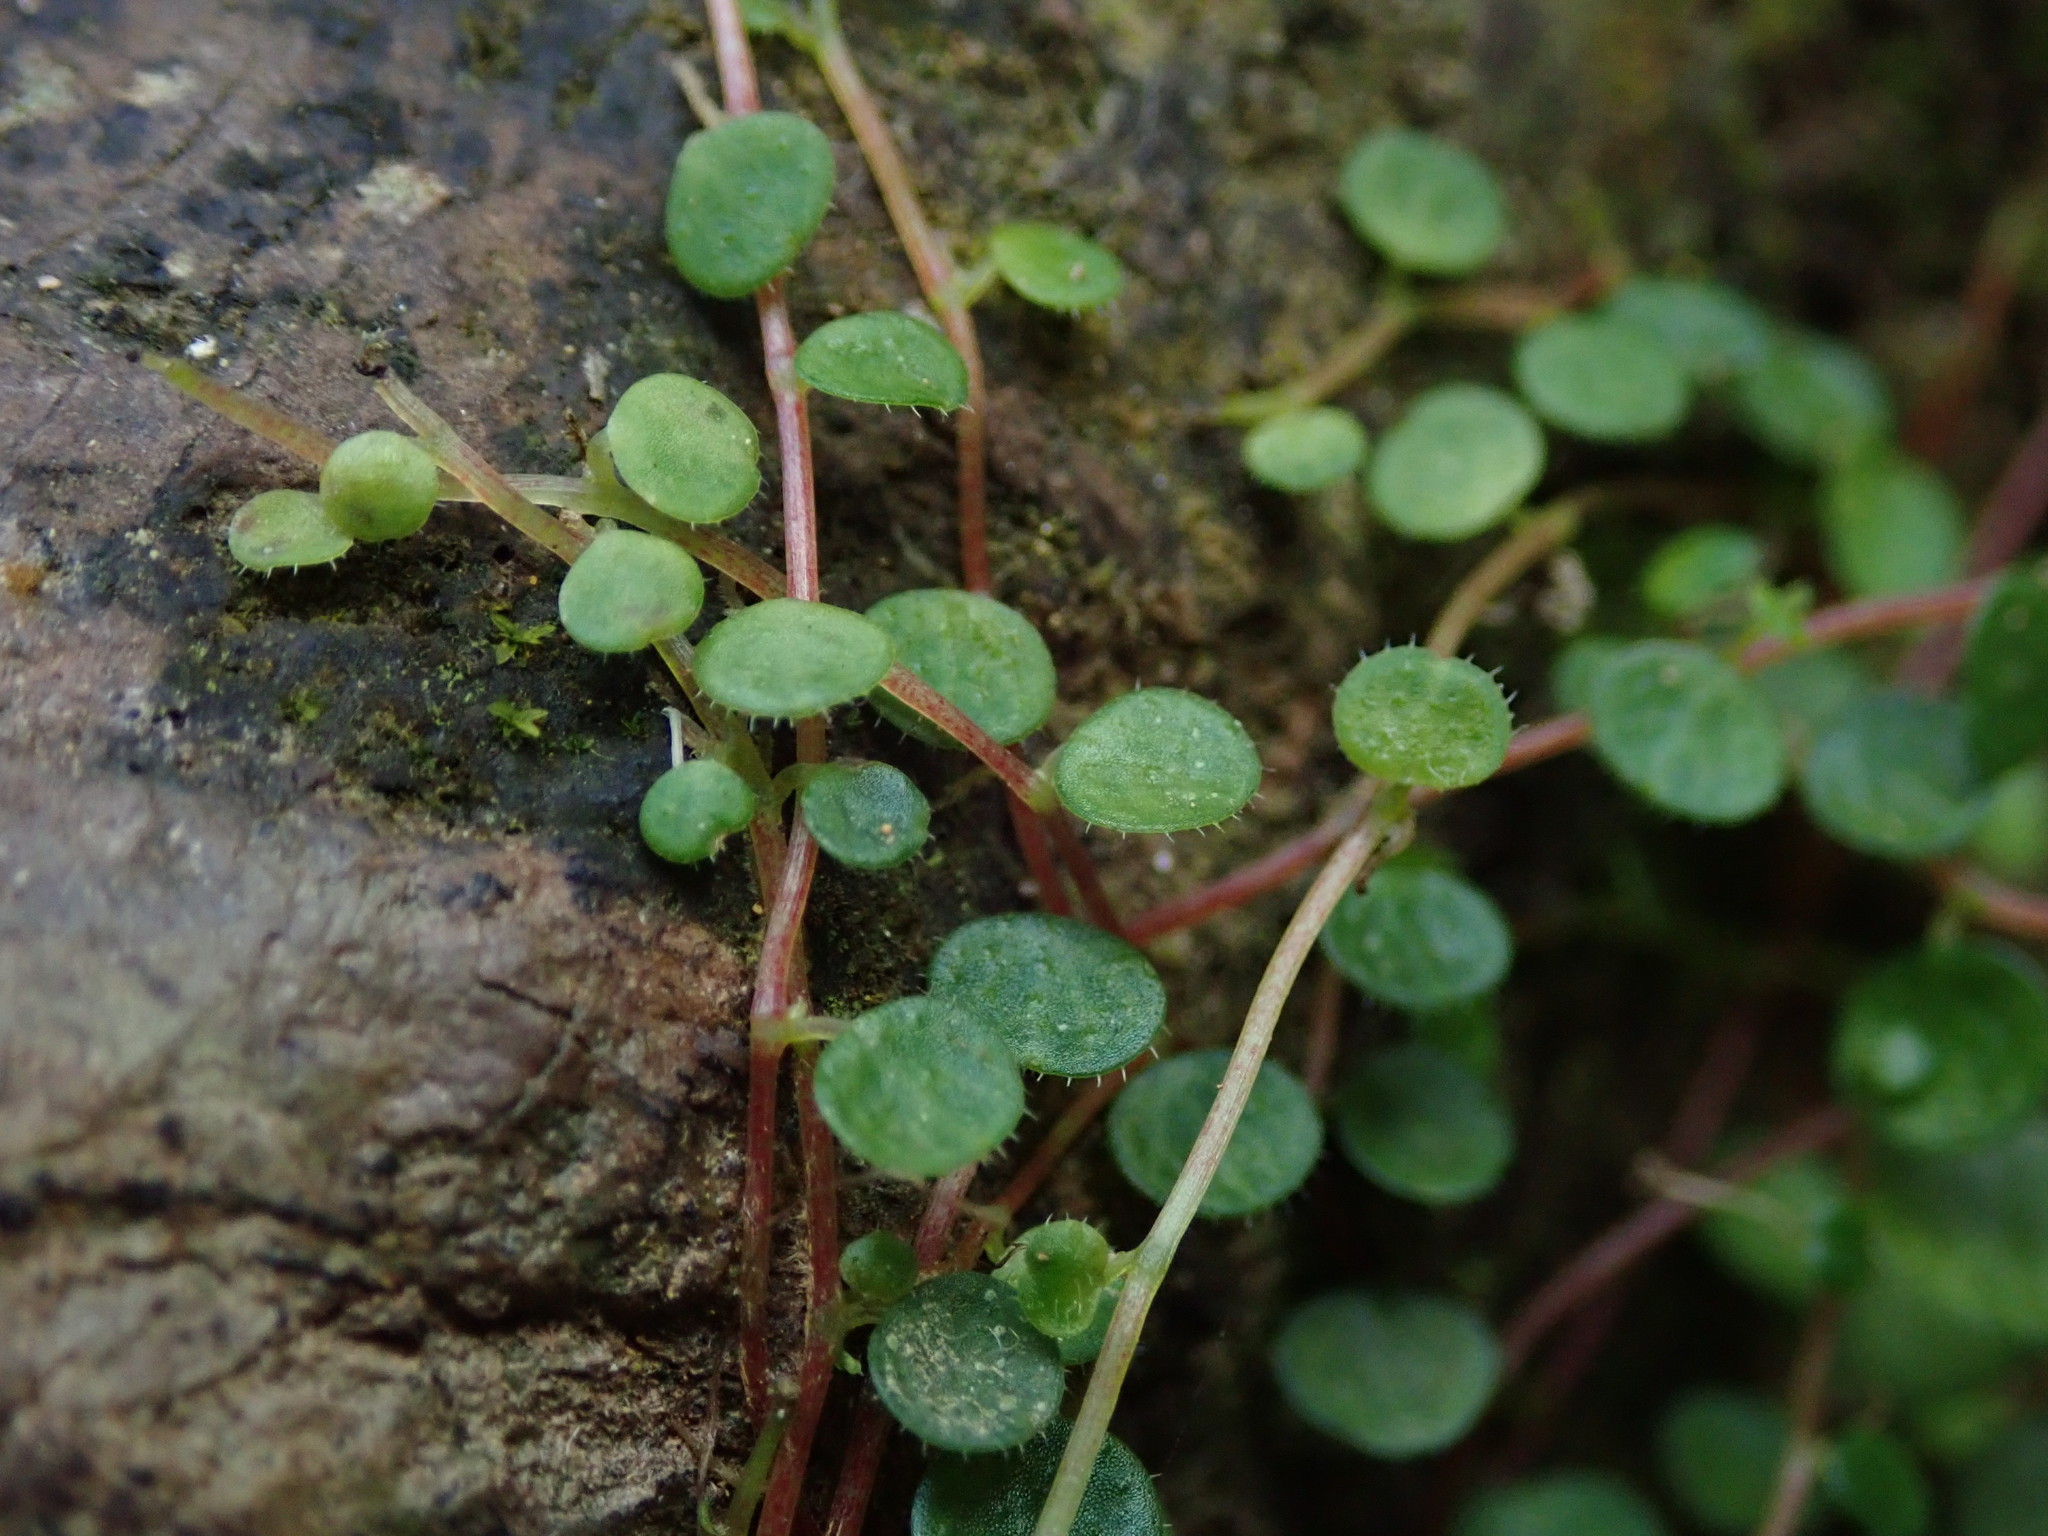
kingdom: Plantae
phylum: Tracheophyta
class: Magnoliopsida
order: Piperales
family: Piperaceae
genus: Peperomia
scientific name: Peperomia emarginella
